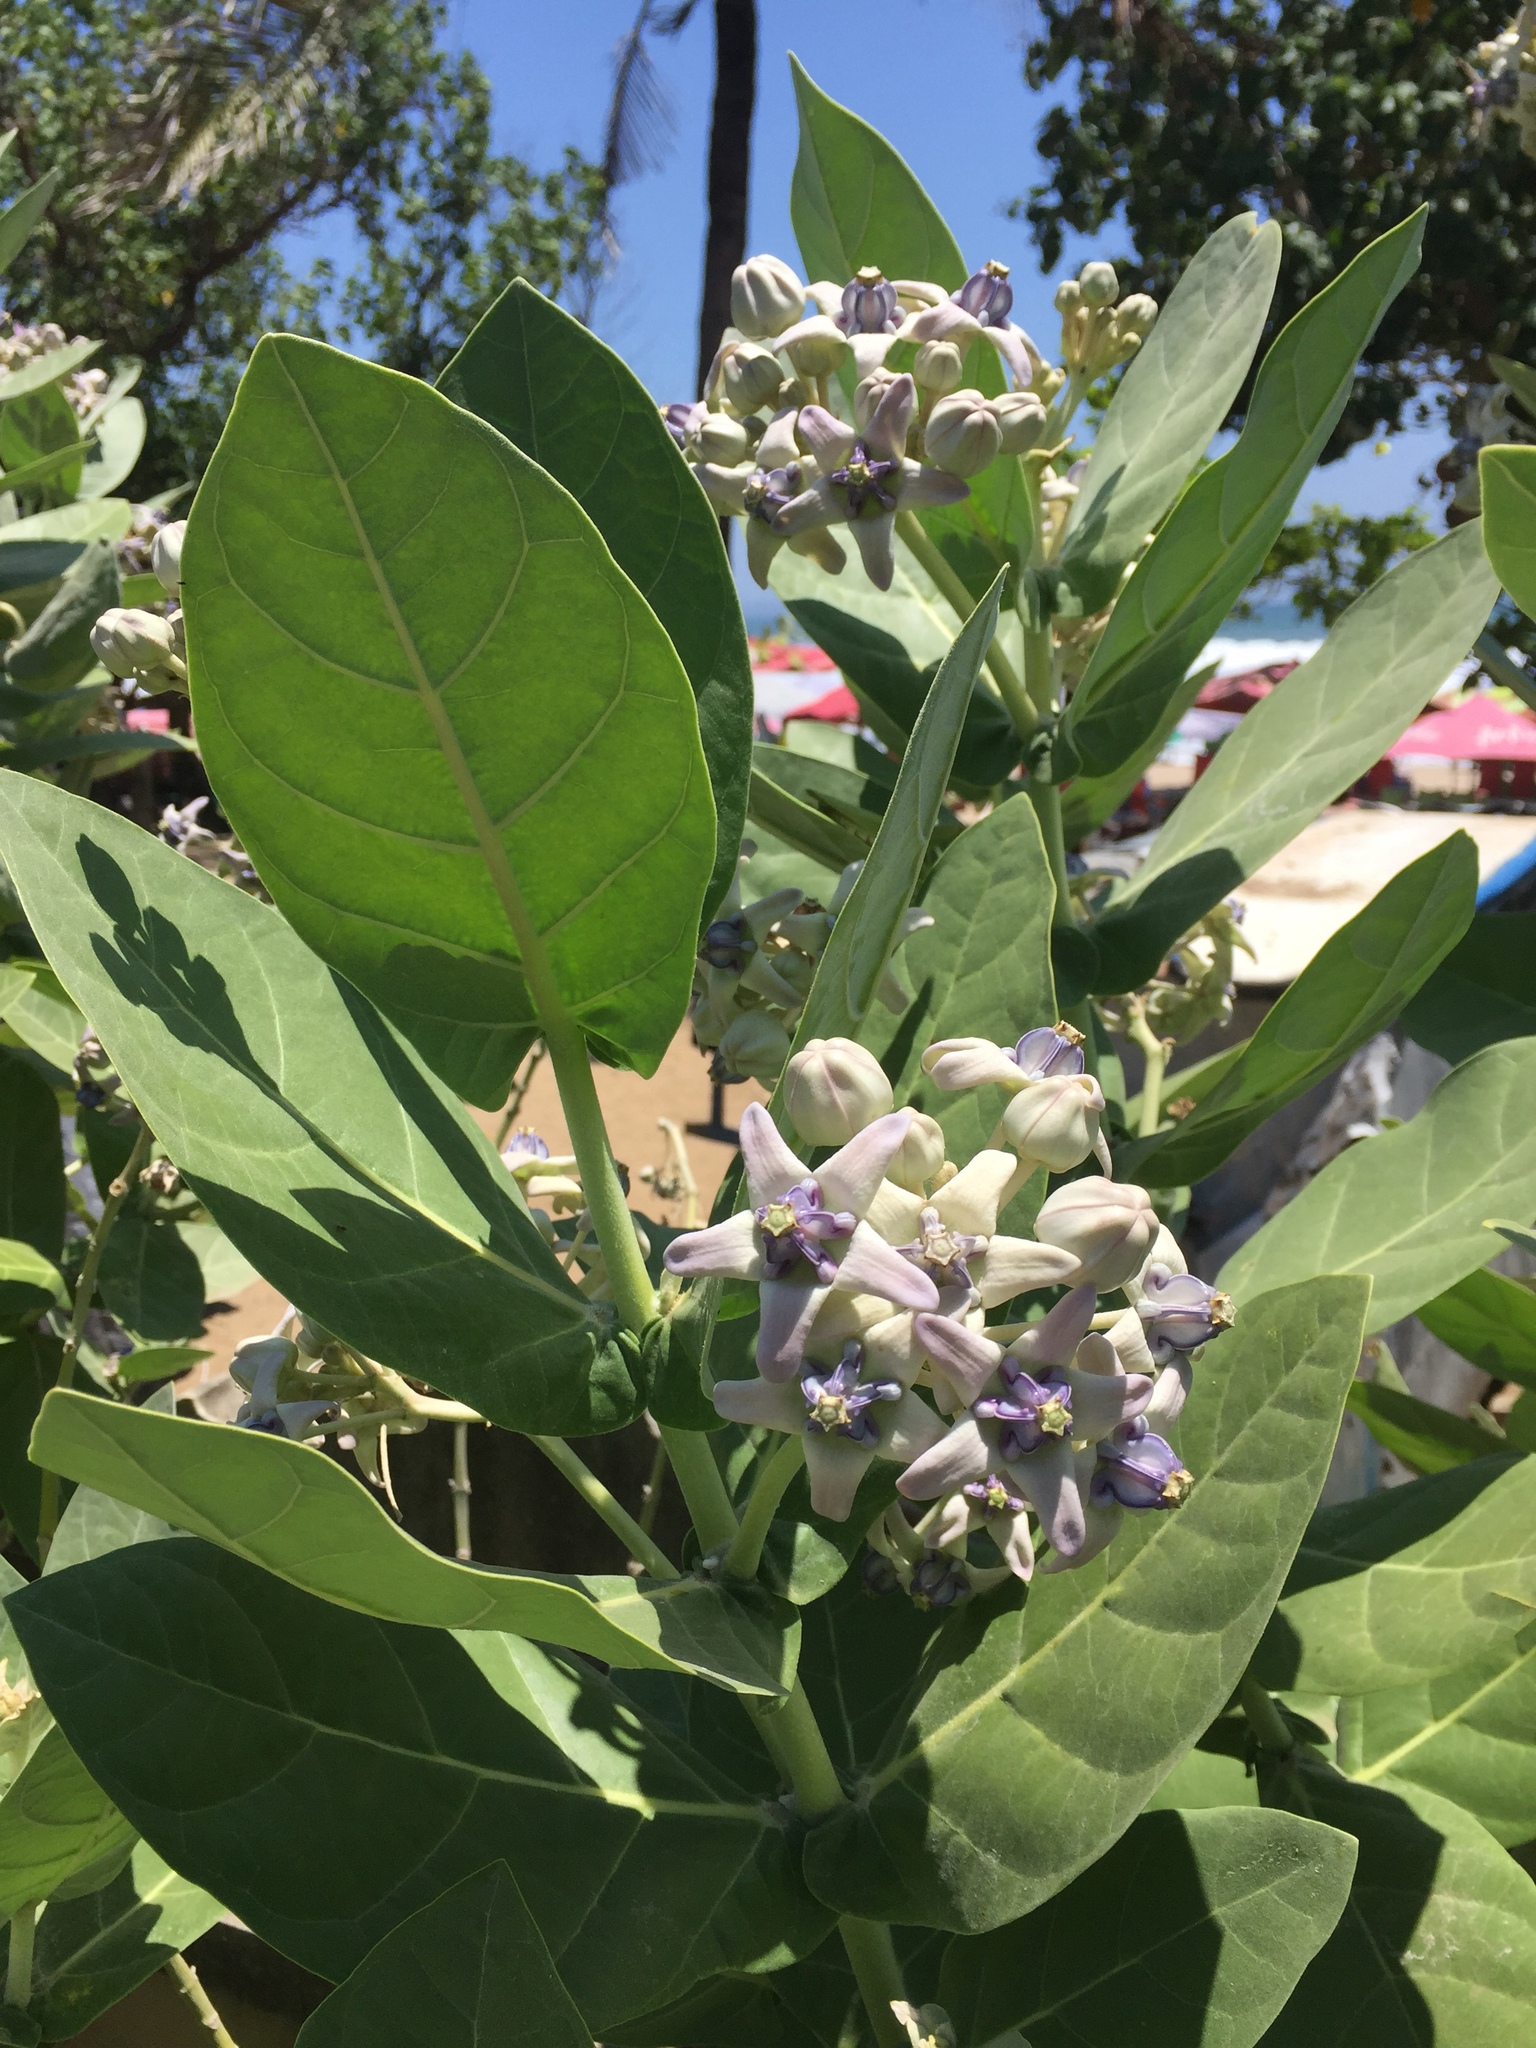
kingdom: Plantae
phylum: Tracheophyta
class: Magnoliopsida
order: Gentianales
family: Apocynaceae
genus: Calotropis
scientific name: Calotropis gigantea
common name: Crown flower
